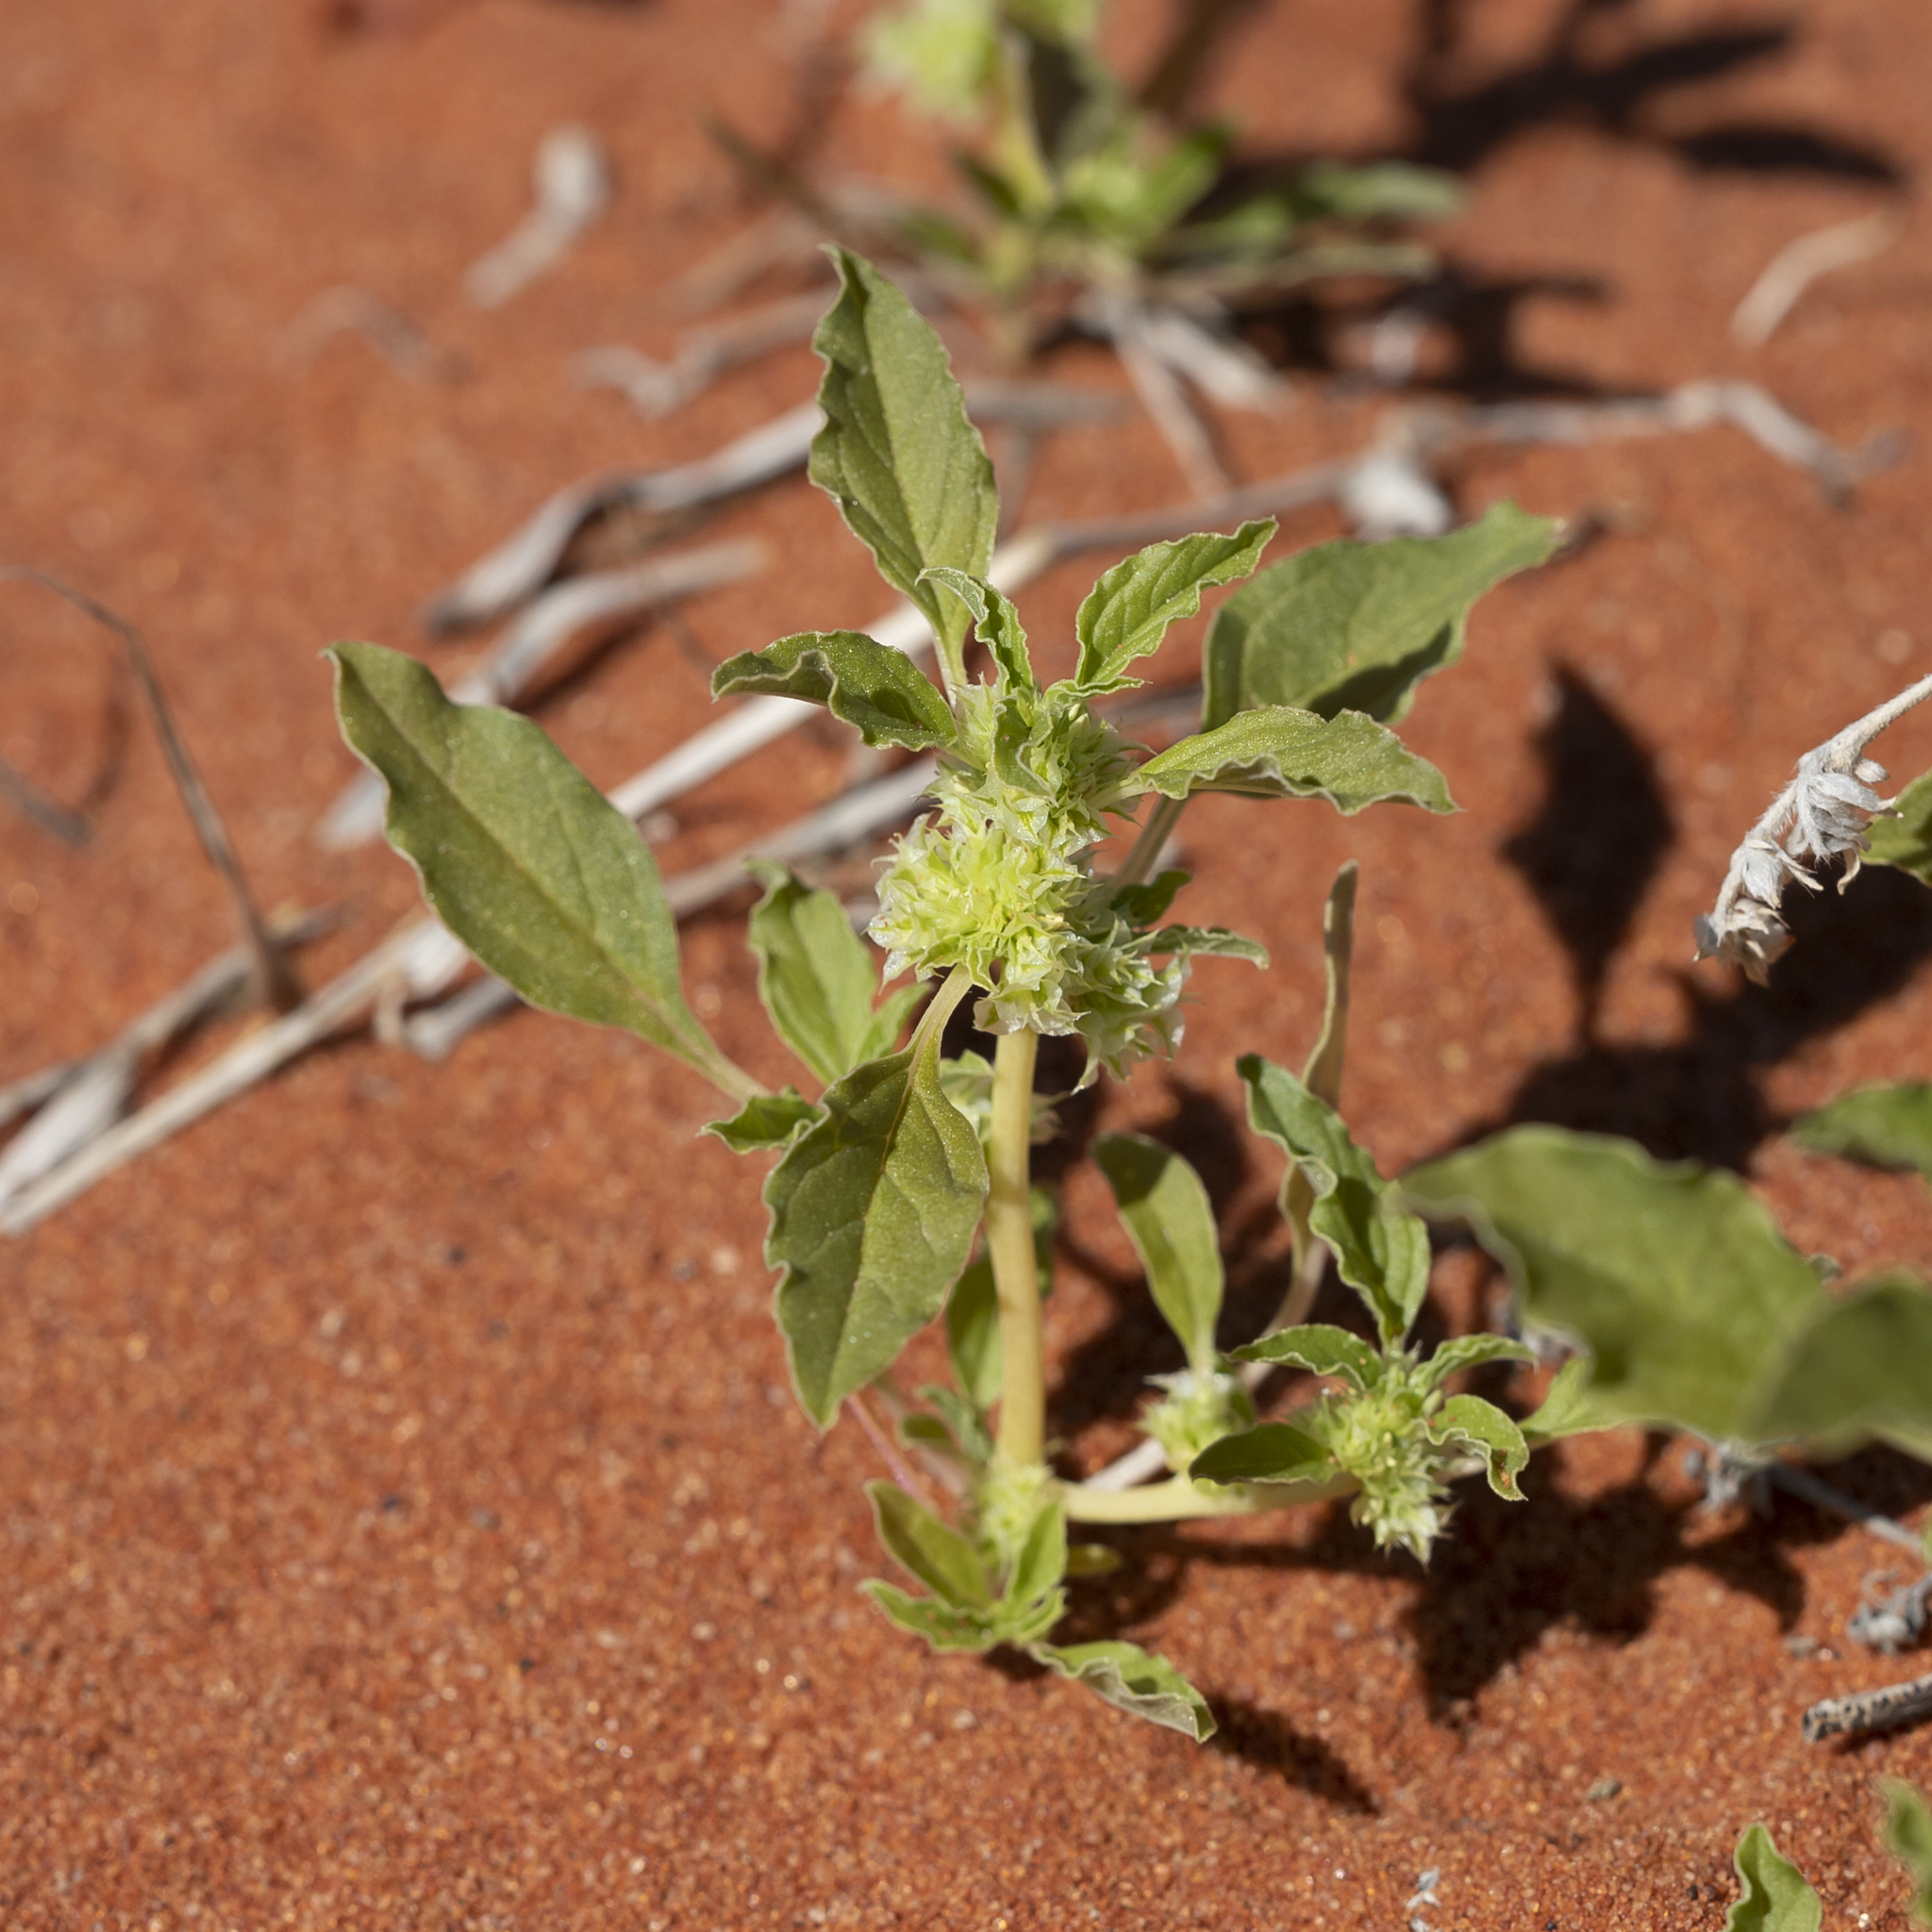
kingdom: Plantae
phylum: Tracheophyta
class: Magnoliopsida
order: Caryophyllales
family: Amaranthaceae
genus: Amaranthus
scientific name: Amaranthus grandiflorus
